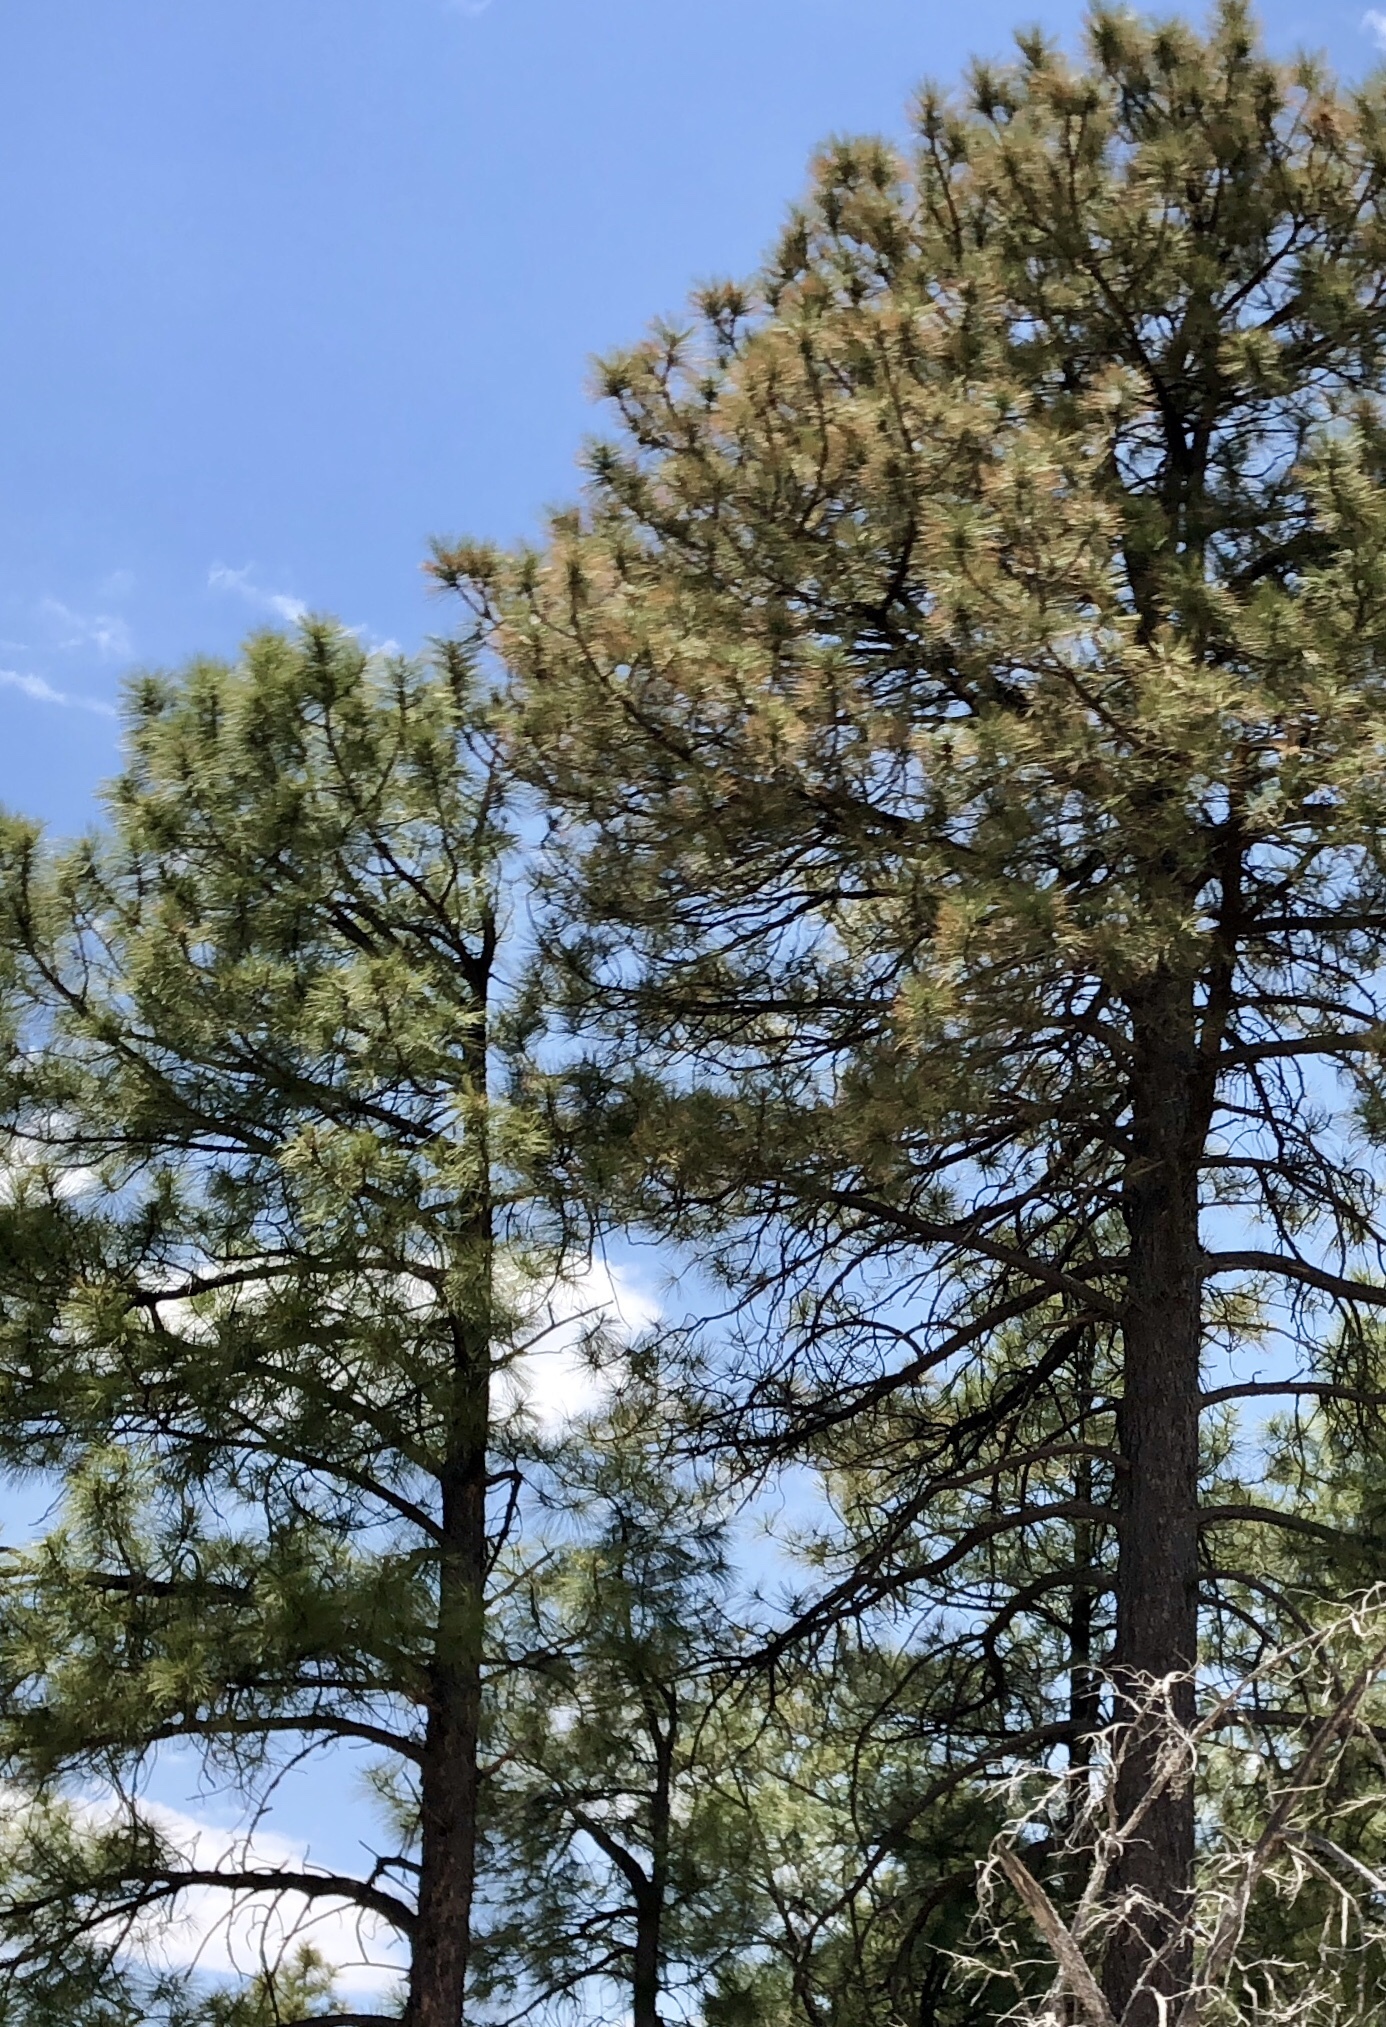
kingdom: Plantae
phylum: Tracheophyta
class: Pinopsida
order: Pinales
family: Pinaceae
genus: Pinus
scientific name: Pinus ponderosa
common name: Western yellow-pine
